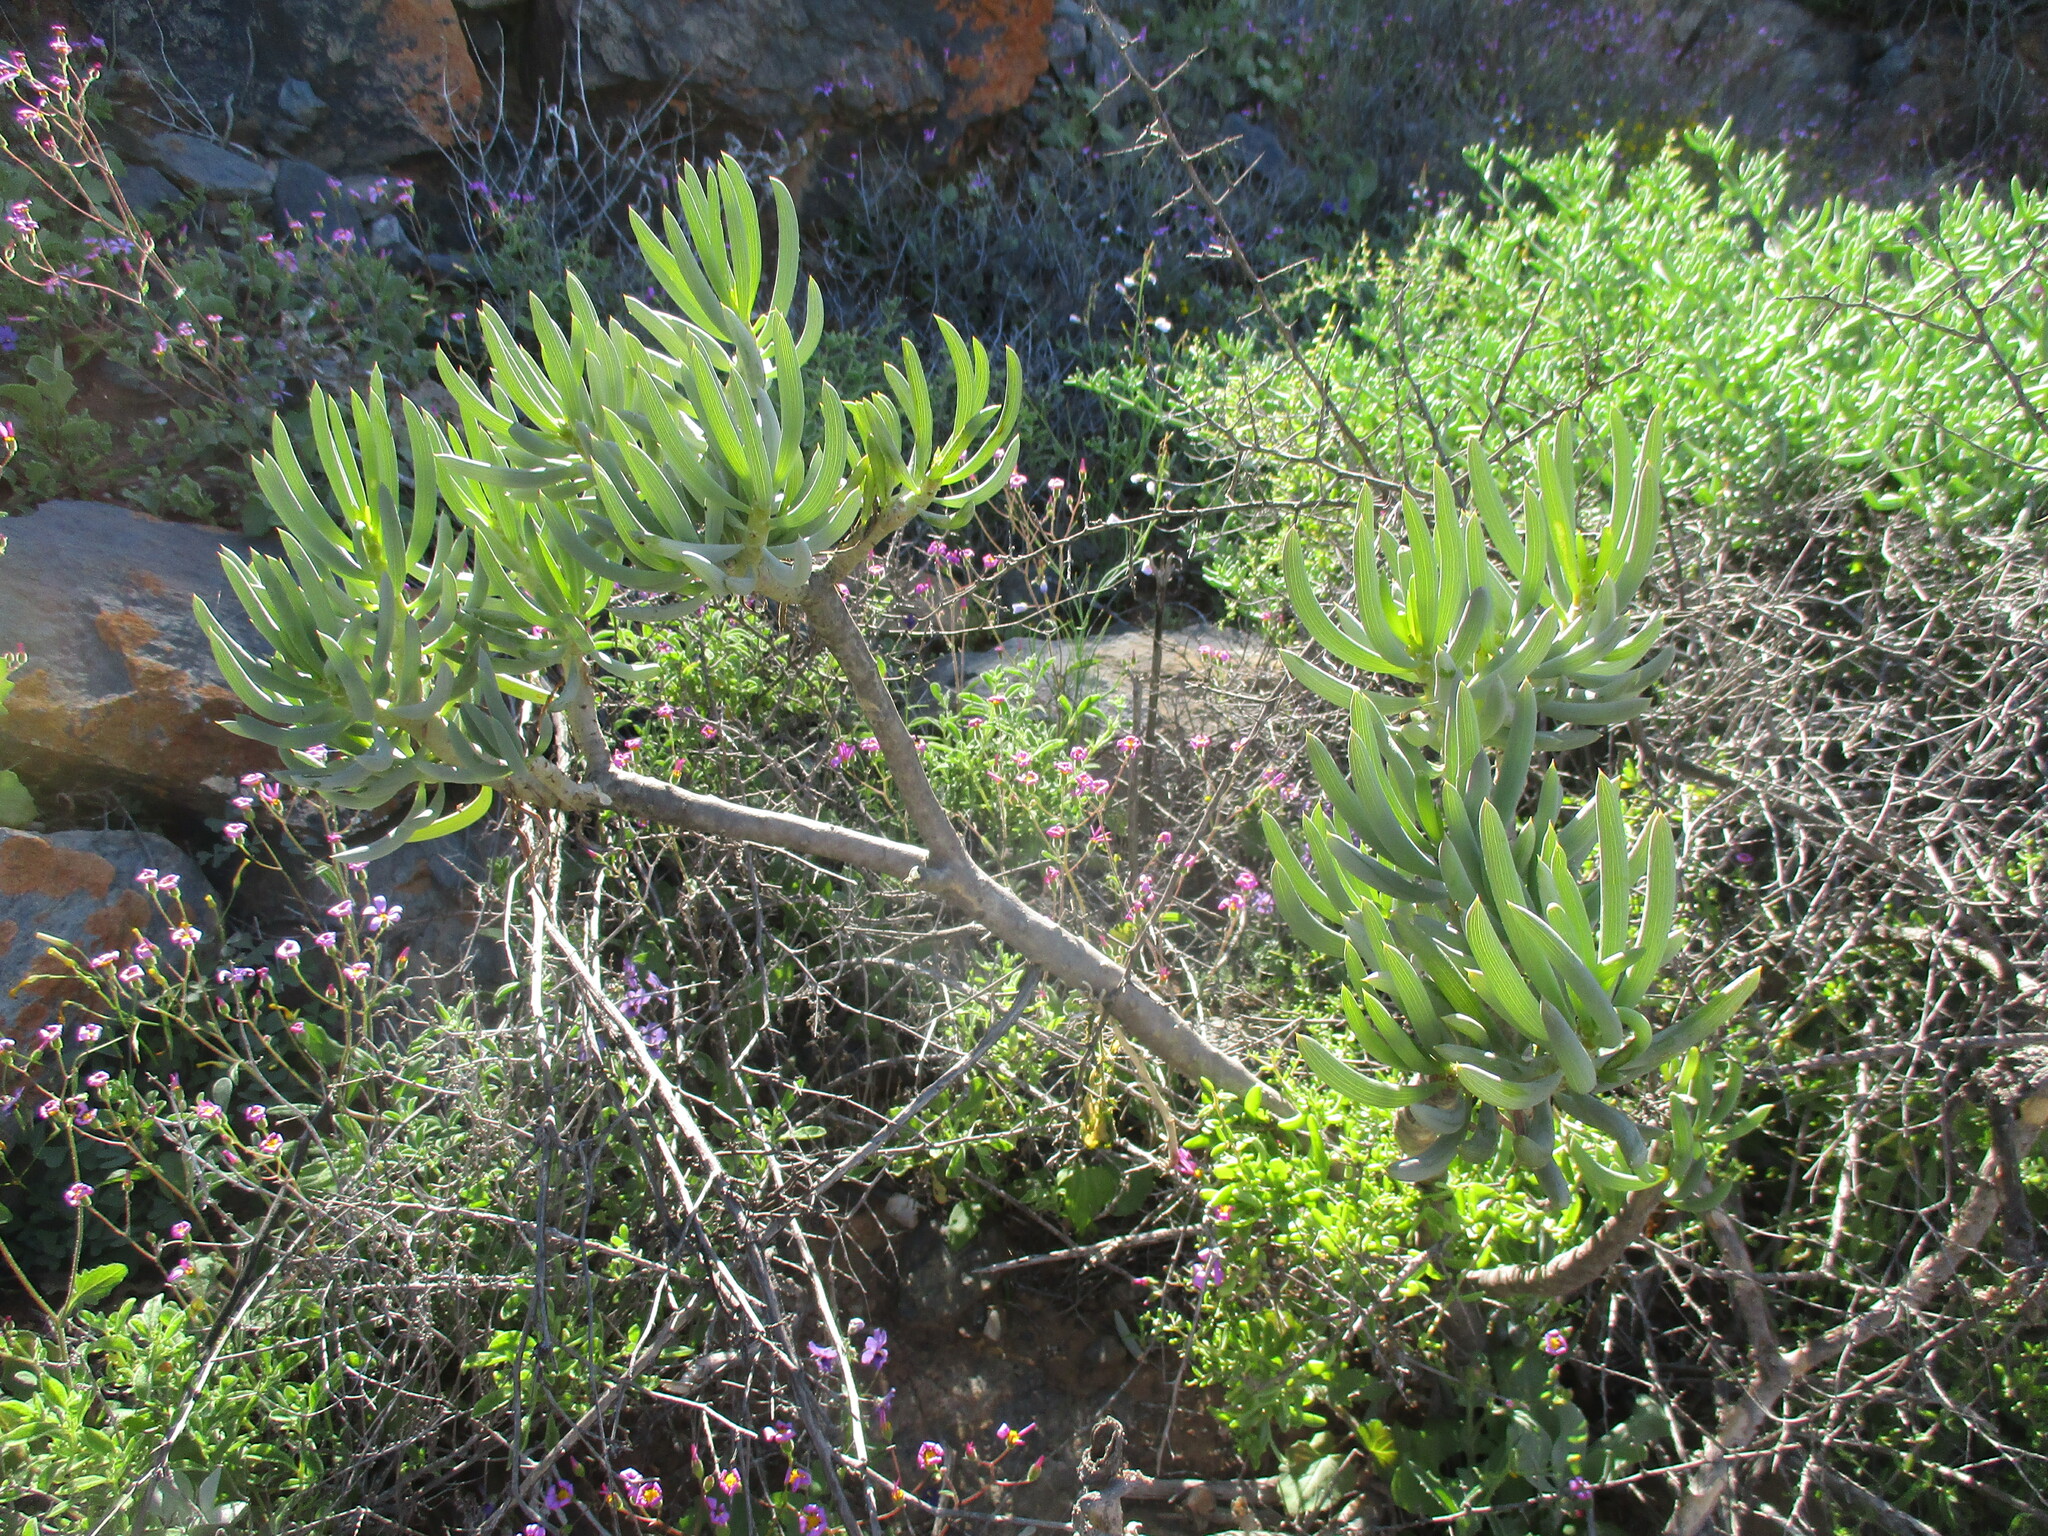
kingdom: Plantae
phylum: Tracheophyta
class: Magnoliopsida
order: Asterales
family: Asteraceae
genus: Curio
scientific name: Curio corymbifer
